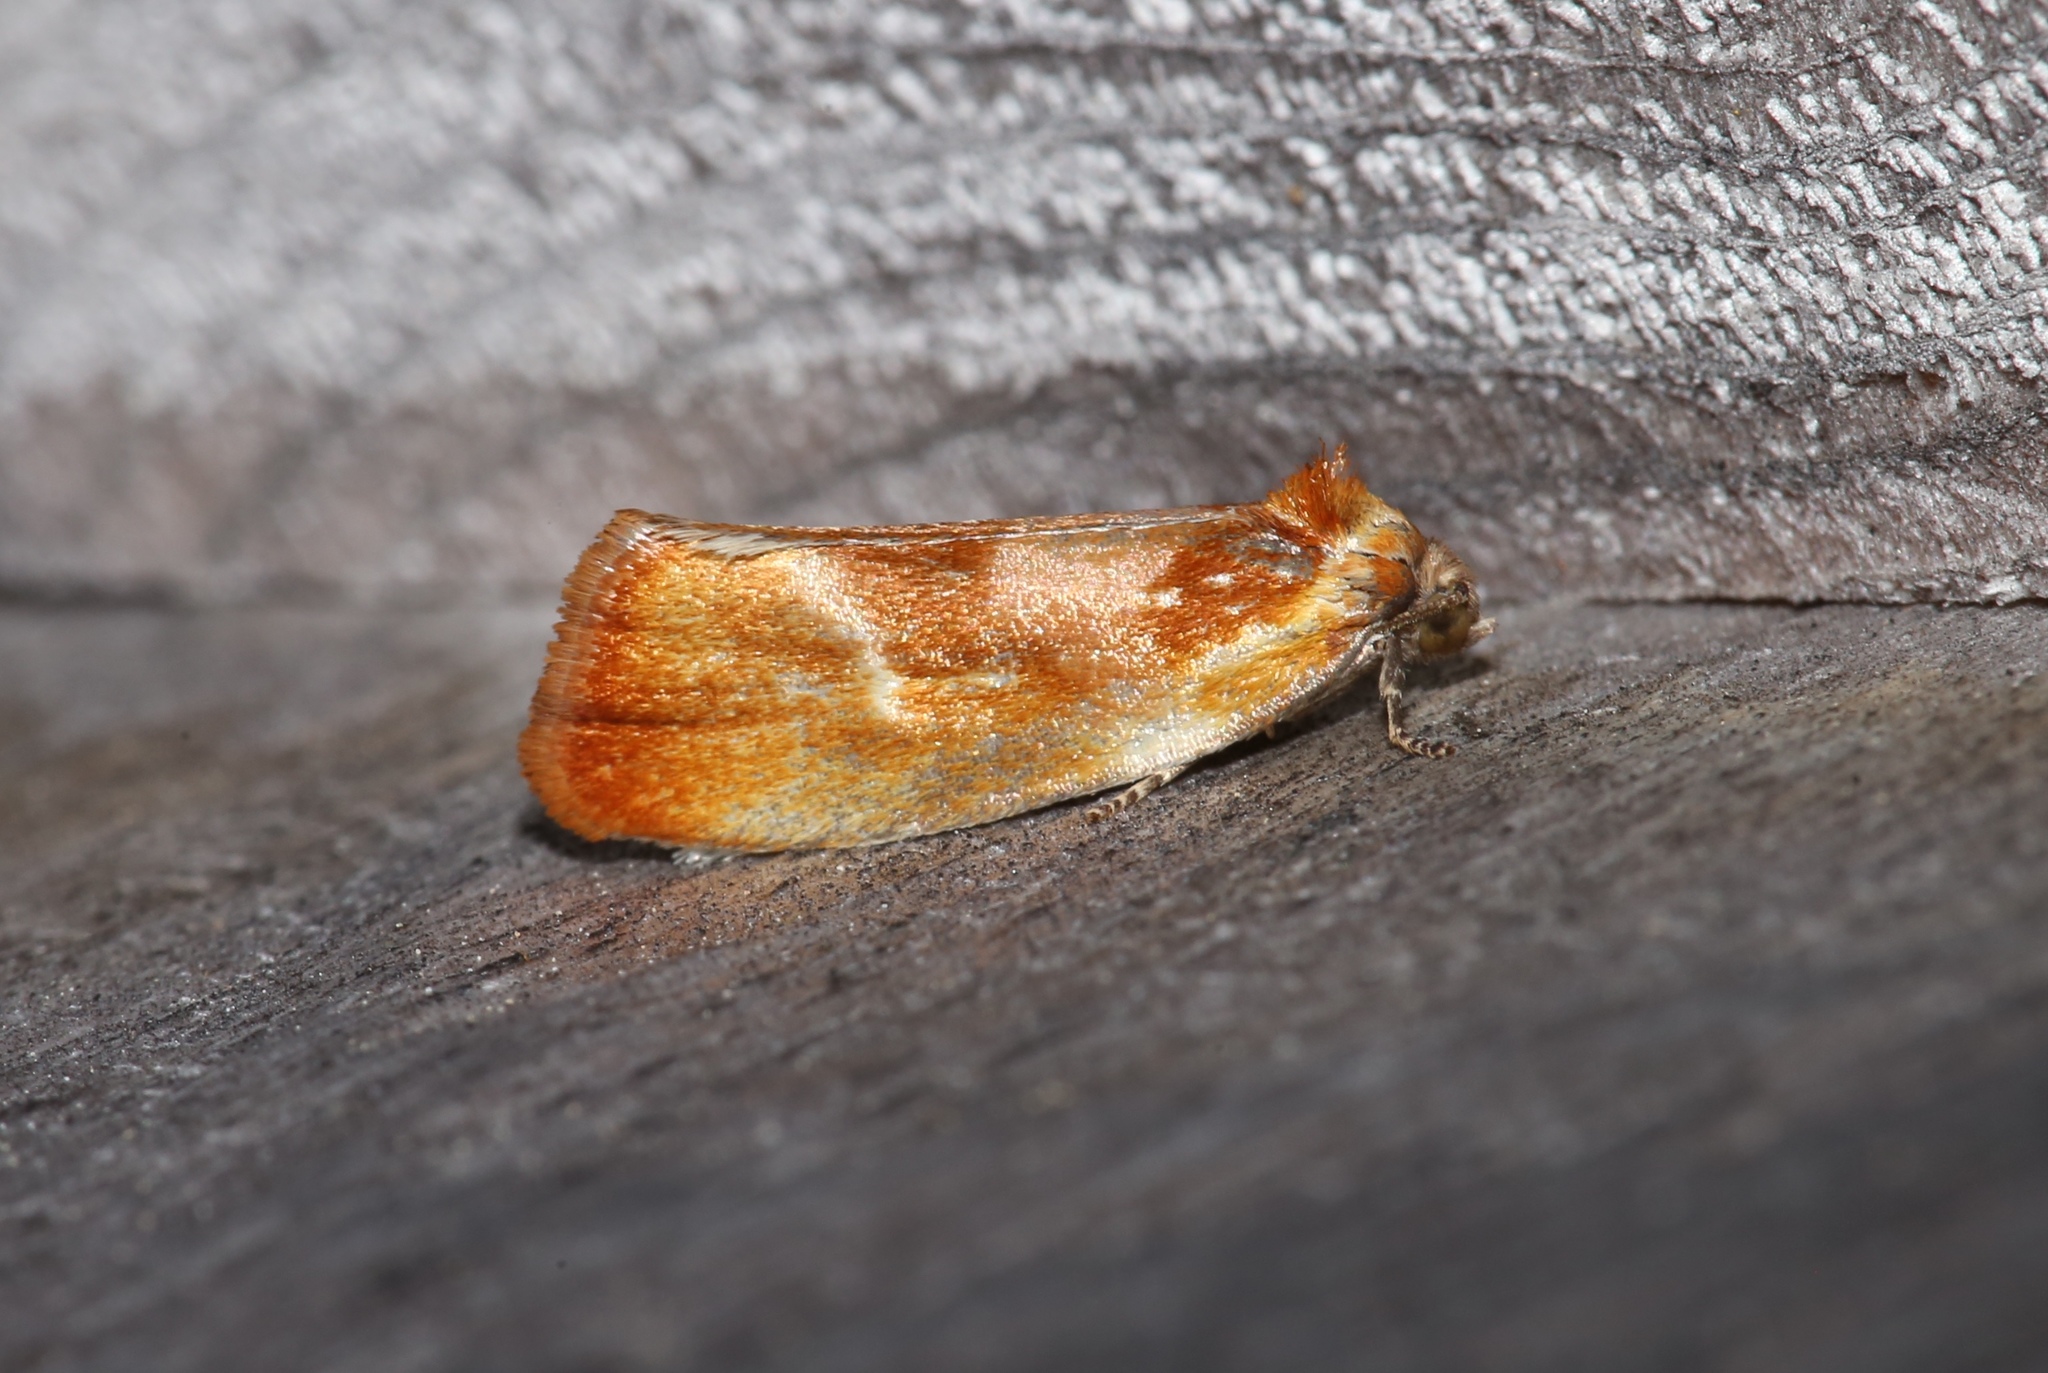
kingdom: Animalia
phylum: Arthropoda
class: Insecta
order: Lepidoptera
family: Tortricidae
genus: Eulia
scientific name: Eulia ministrana
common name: Brassy twist
